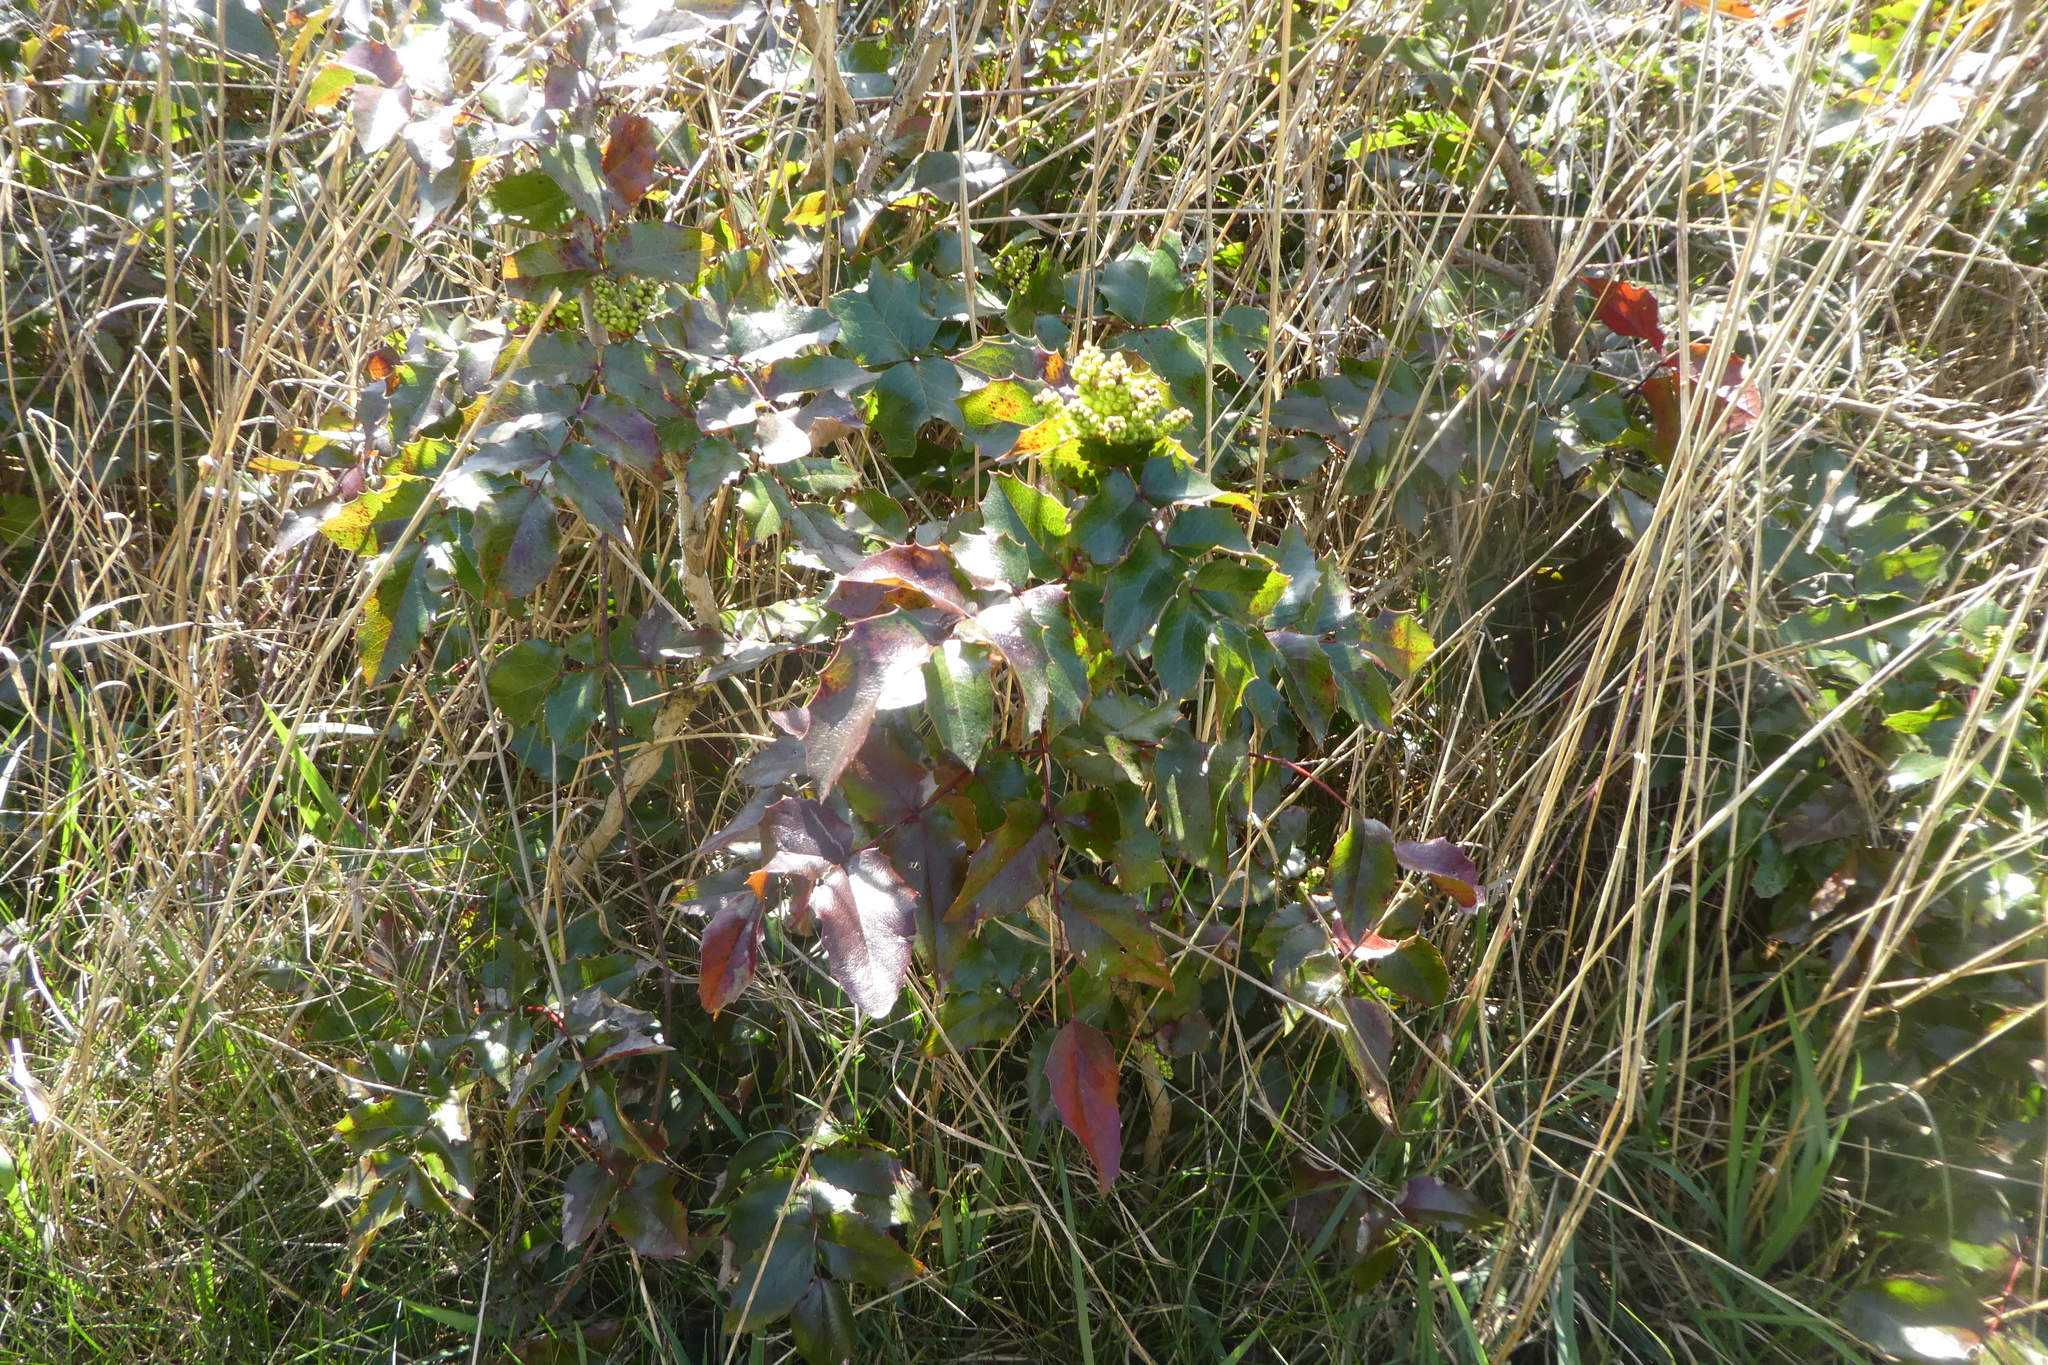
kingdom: Plantae
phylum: Tracheophyta
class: Magnoliopsida
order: Ranunculales
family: Berberidaceae
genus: Mahonia
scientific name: Mahonia aquifolium
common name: Oregon-grape
